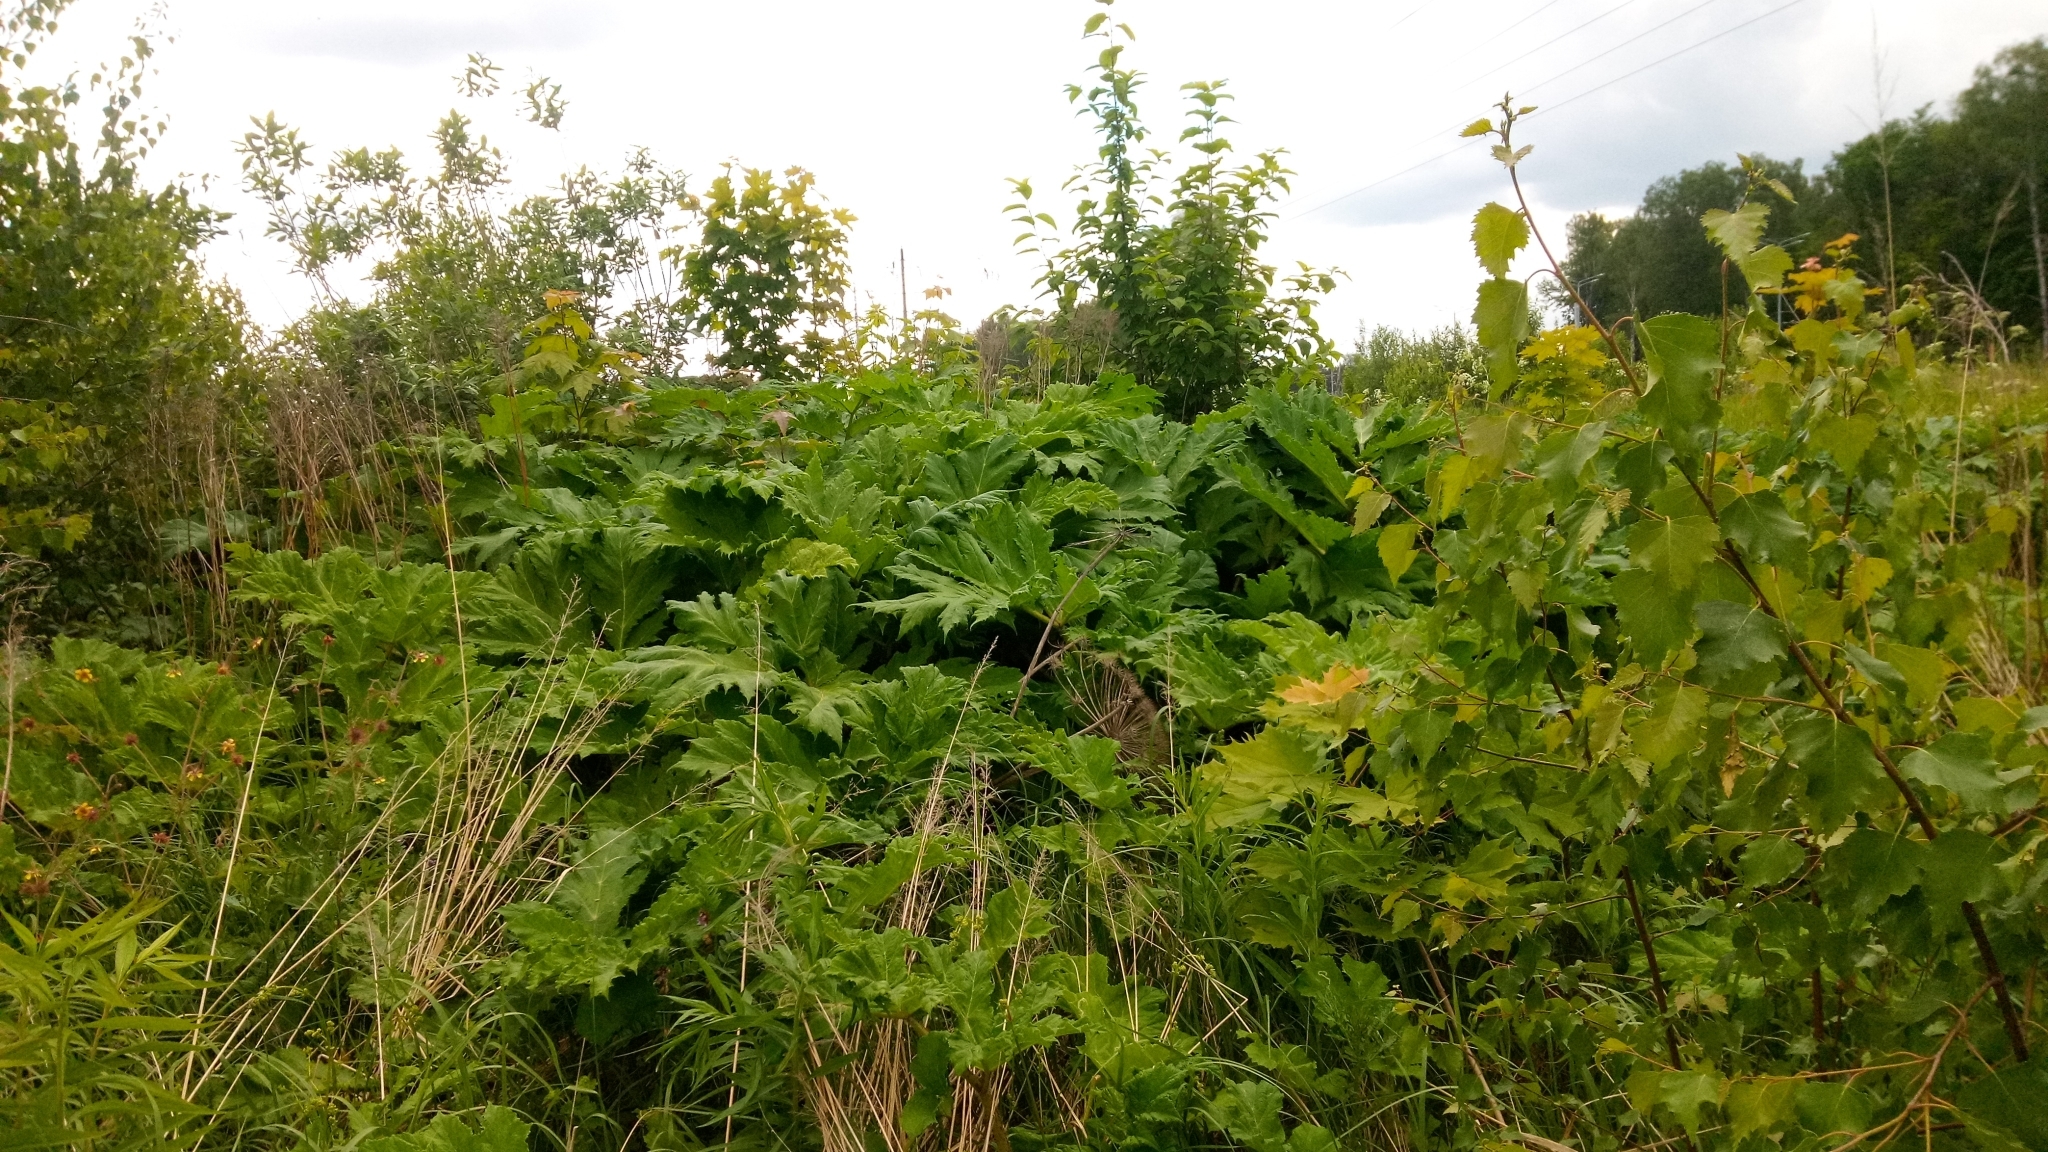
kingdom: Plantae
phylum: Tracheophyta
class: Magnoliopsida
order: Apiales
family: Apiaceae
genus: Heracleum
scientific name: Heracleum sosnowskyi
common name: Sosnowsky's hogweed
